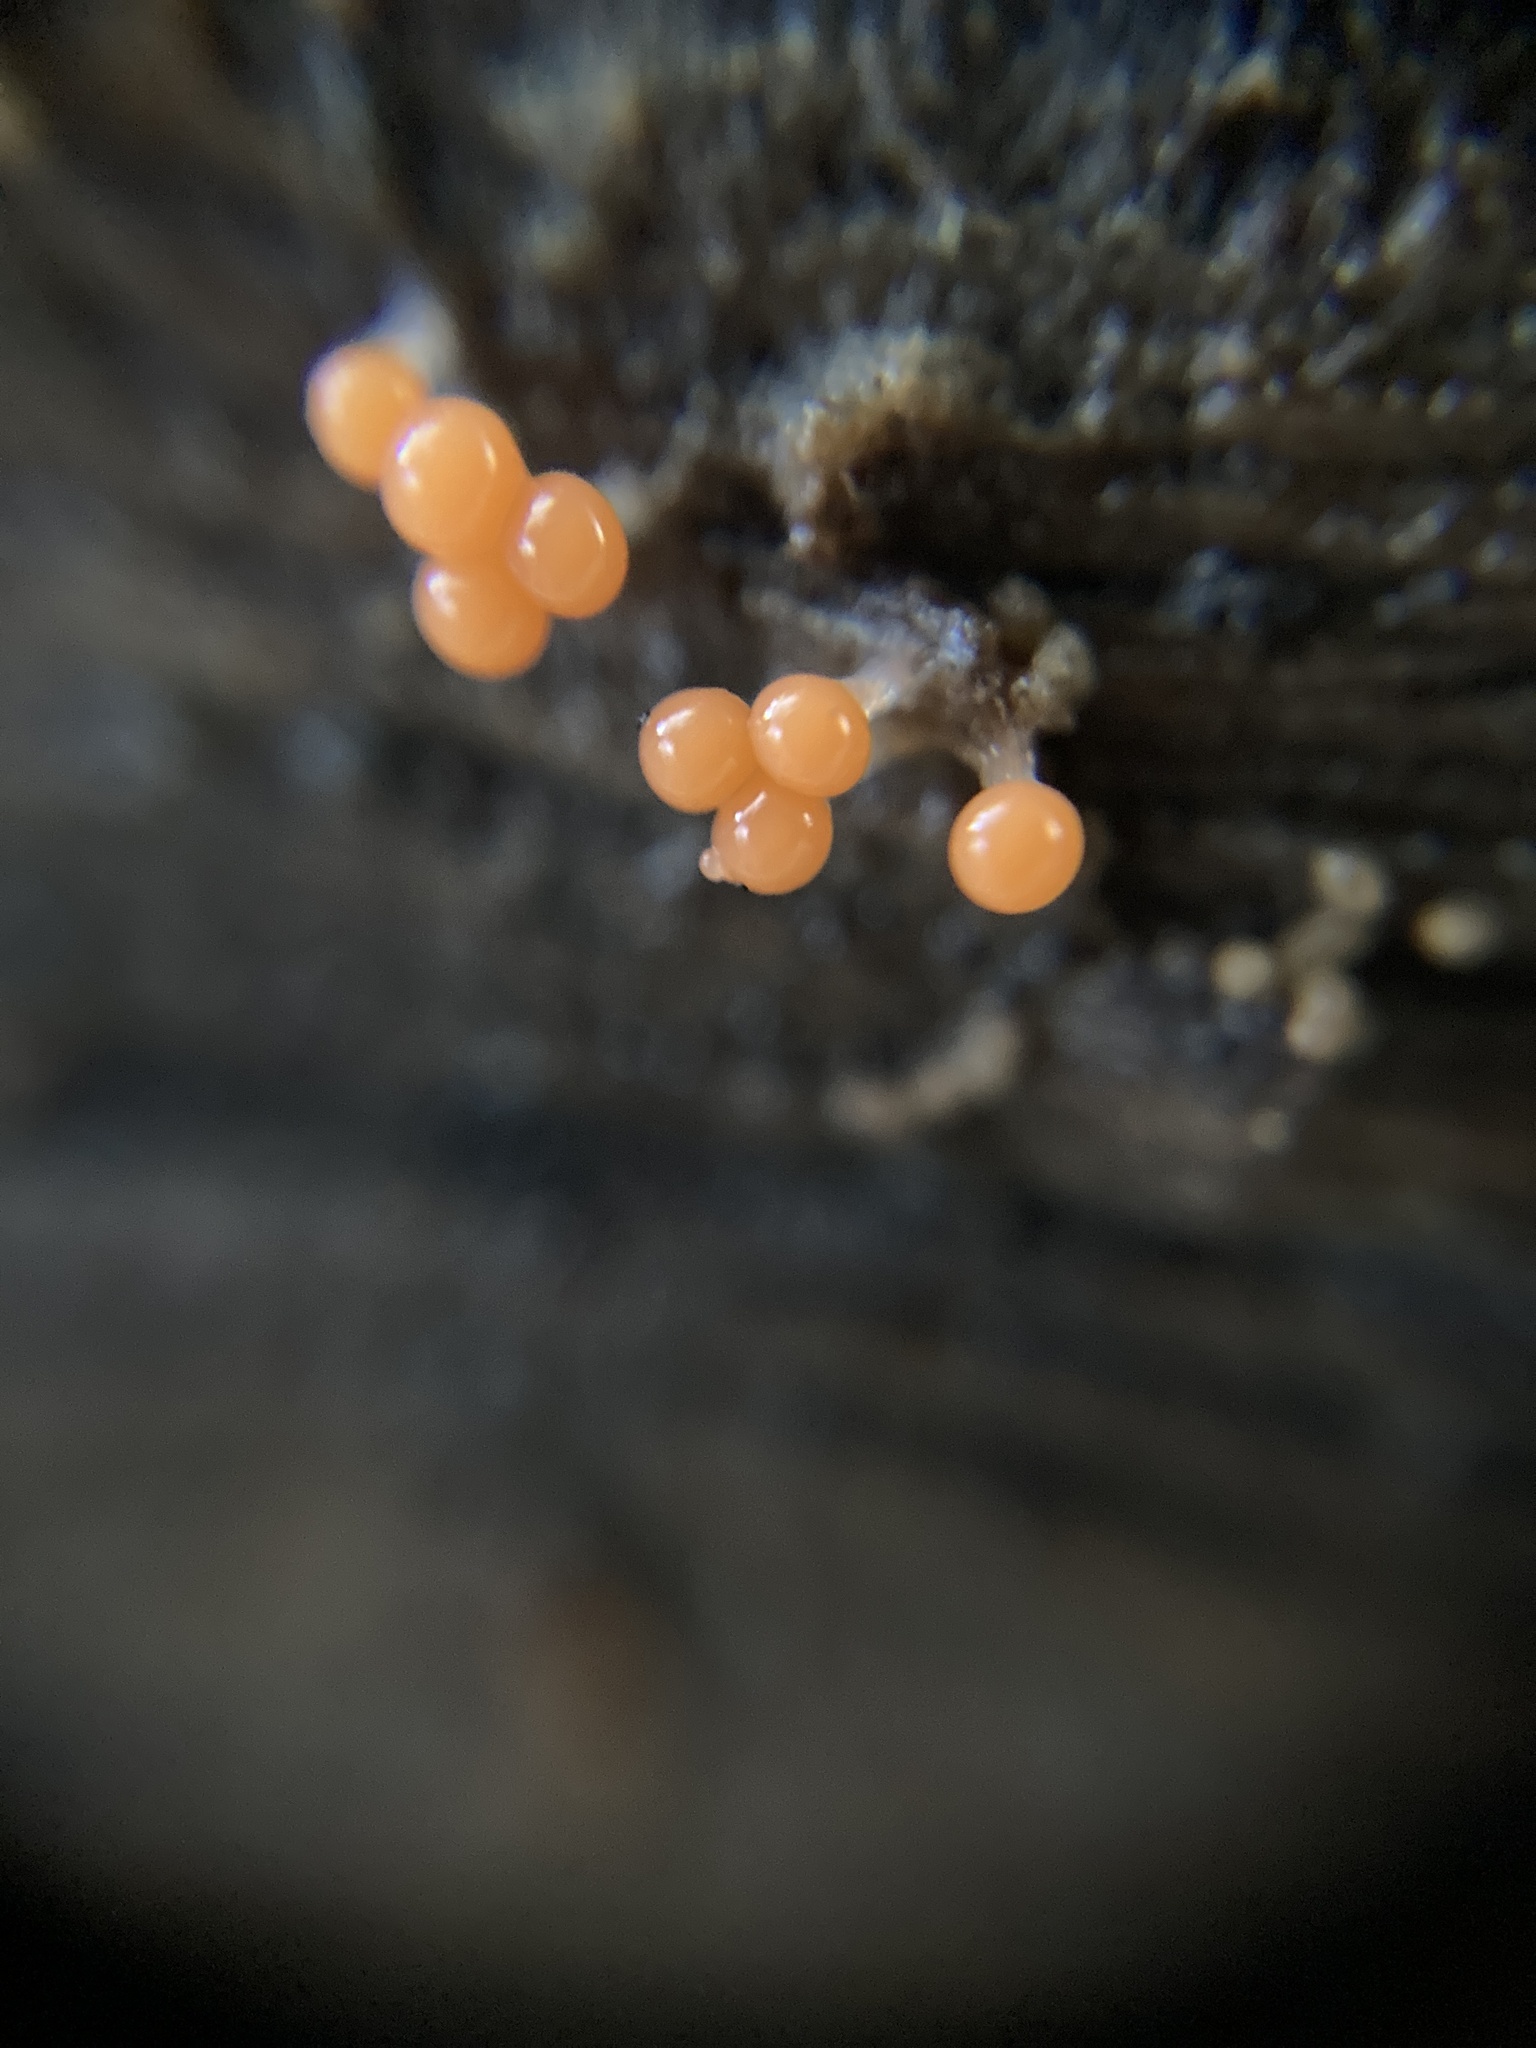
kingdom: Protozoa
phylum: Mycetozoa
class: Myxomycetes
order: Trichiales
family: Arcyriaceae
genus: Hemitrichia
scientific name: Hemitrichia decipiens
